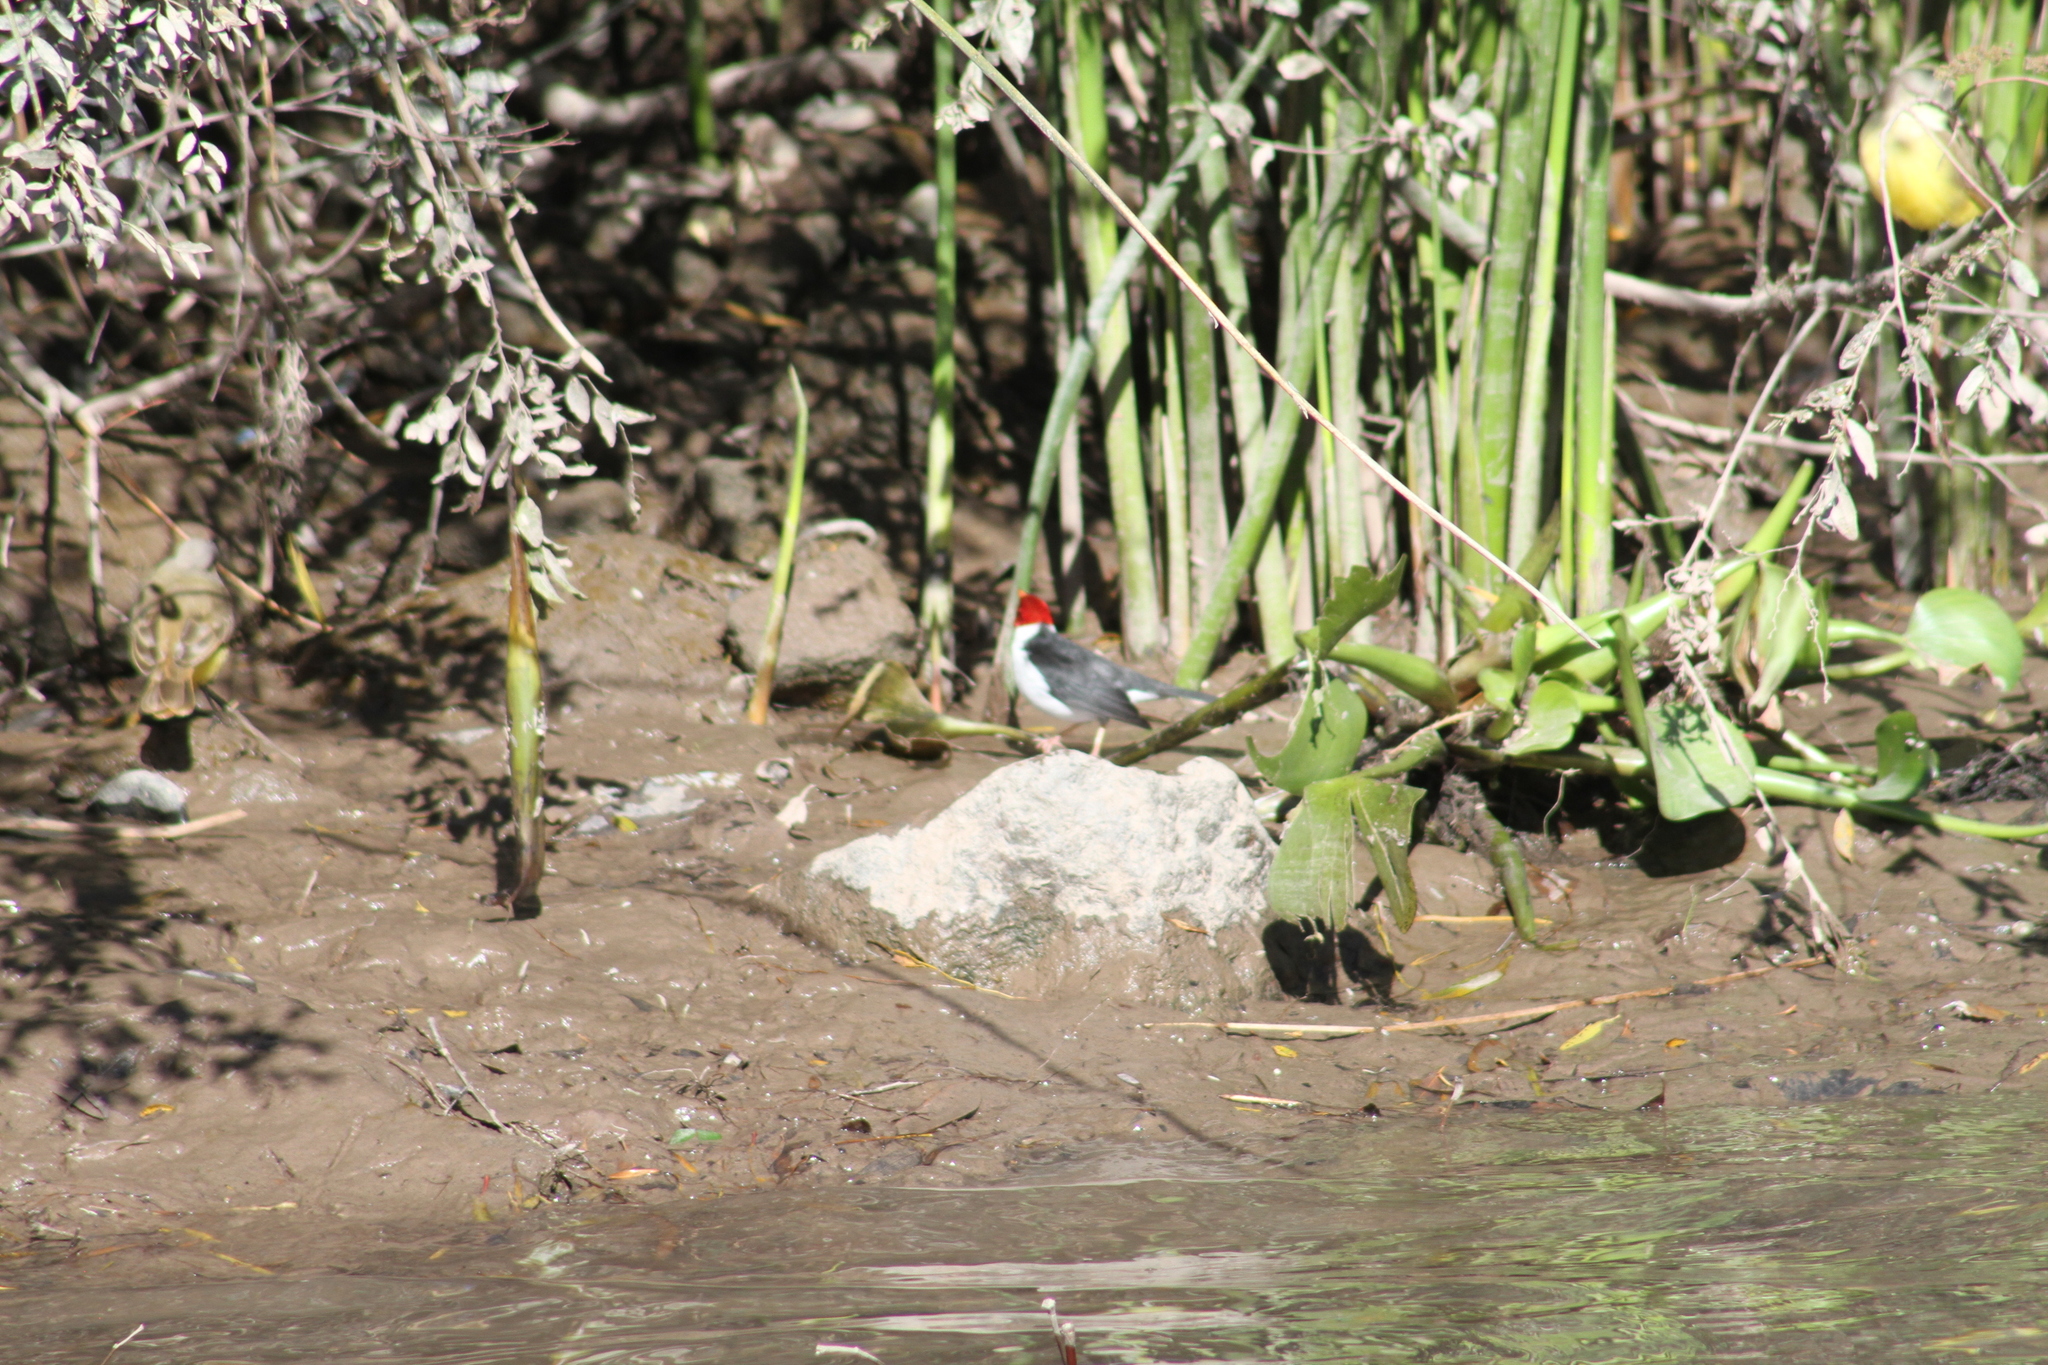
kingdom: Animalia
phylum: Chordata
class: Aves
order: Passeriformes
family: Thraupidae
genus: Paroaria
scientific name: Paroaria capitata
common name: Yellow-billed cardinal
